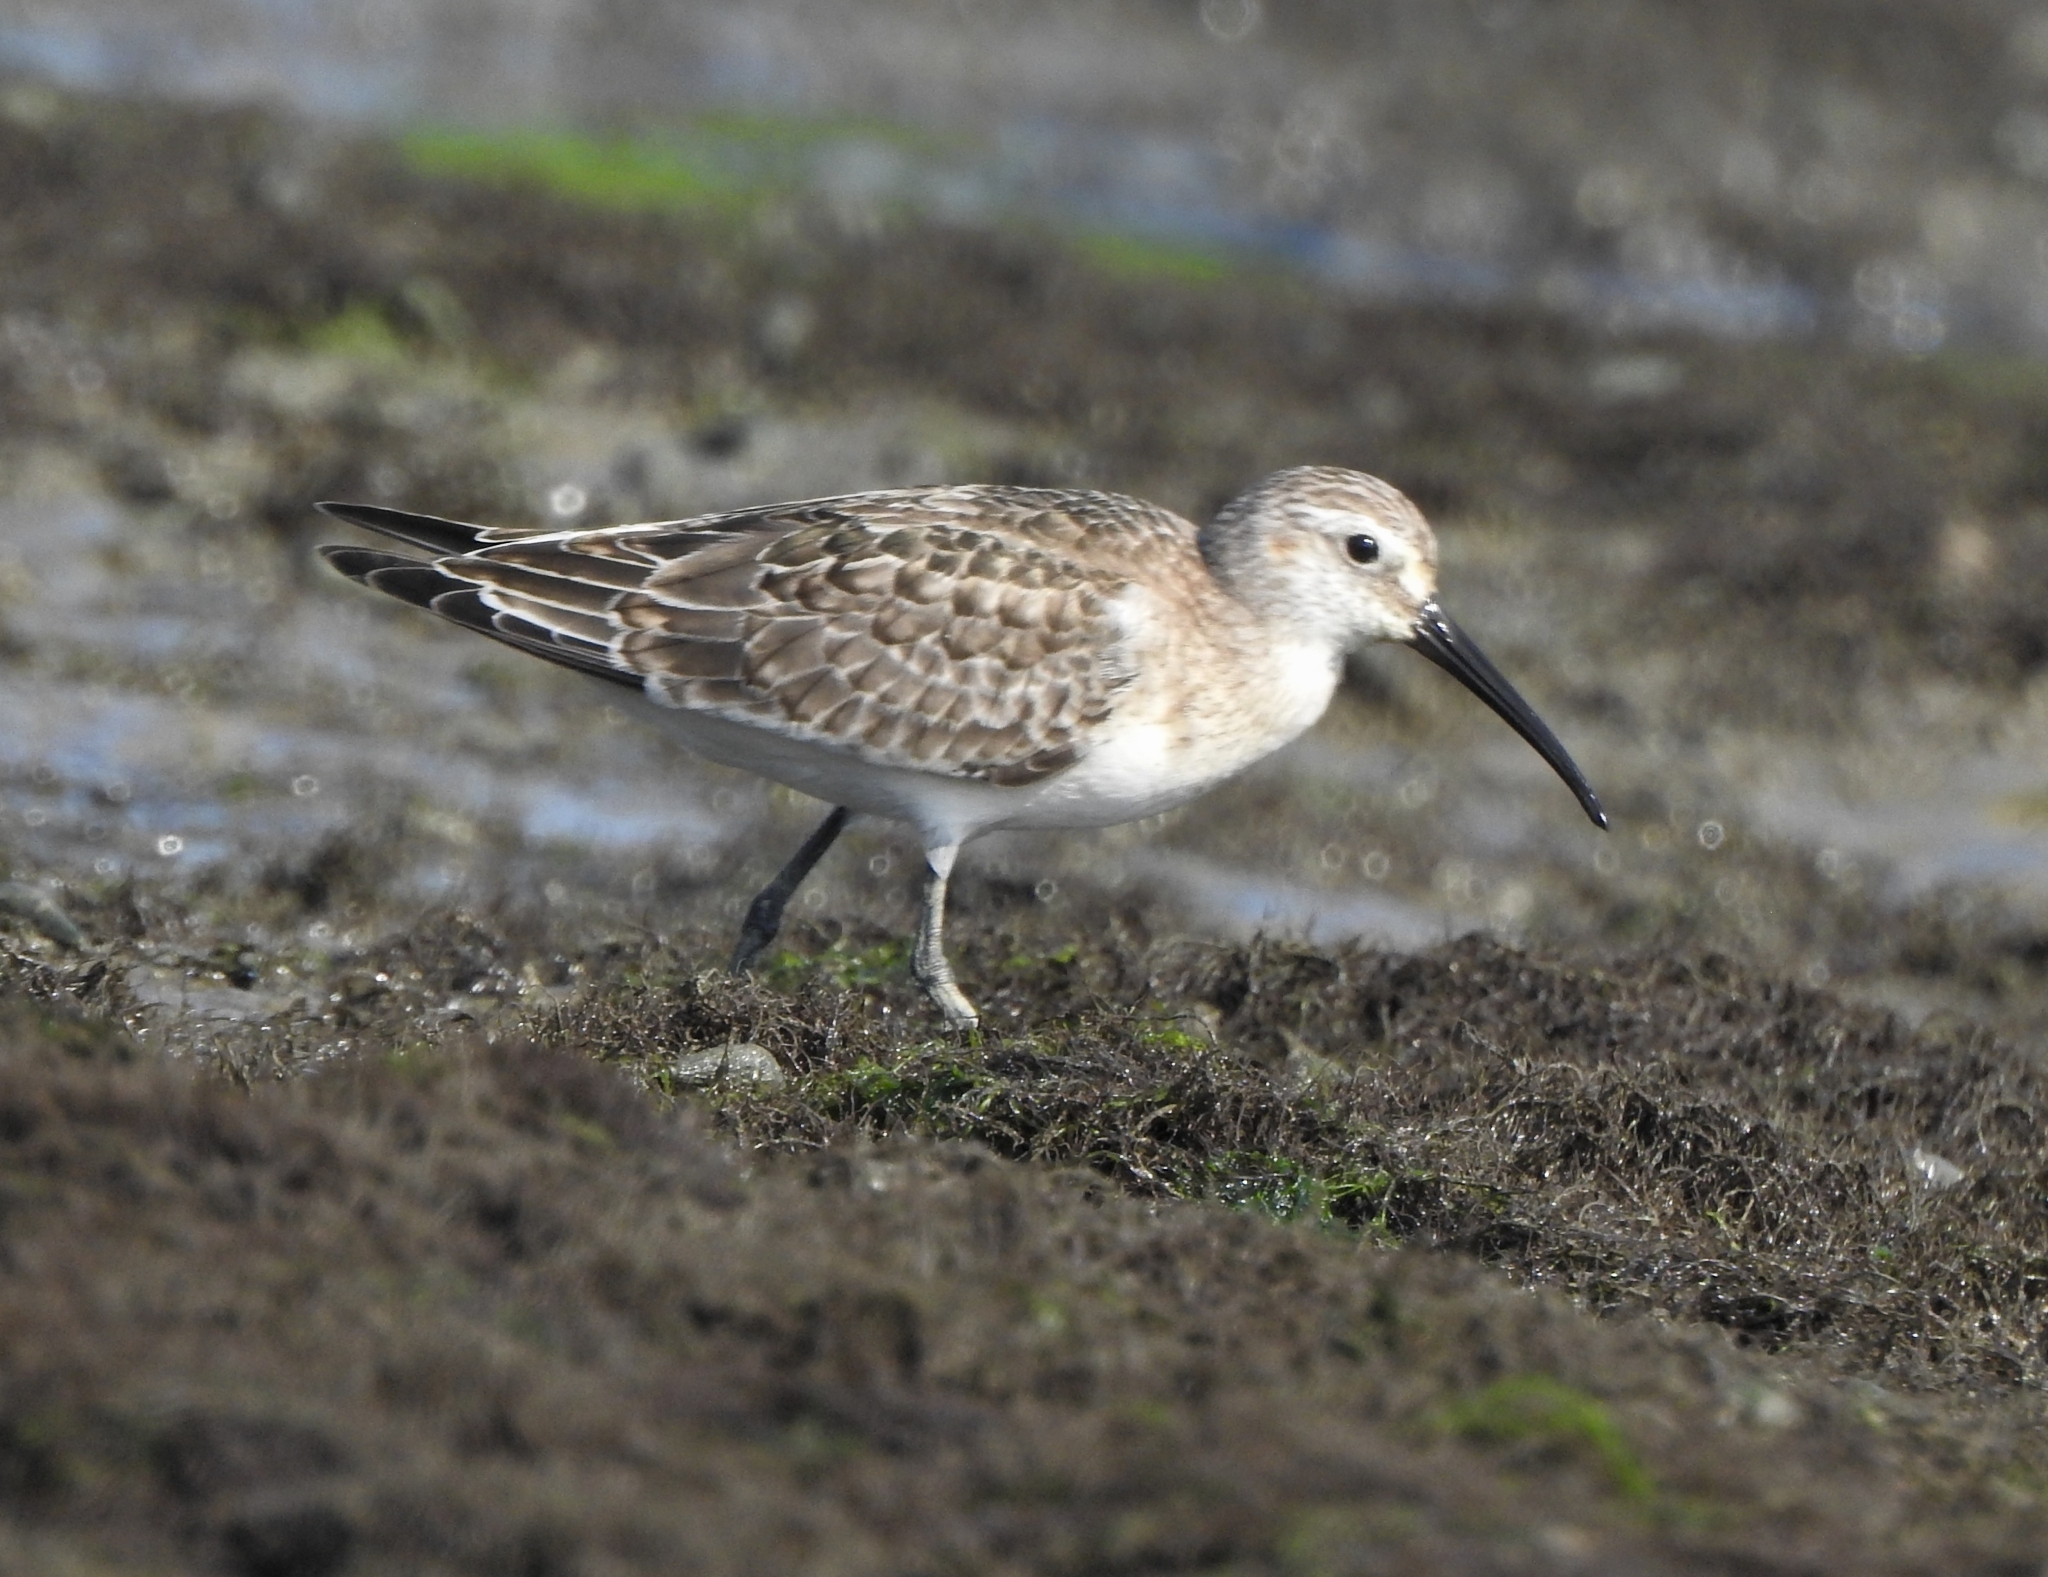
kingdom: Animalia
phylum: Chordata
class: Aves
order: Charadriiformes
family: Scolopacidae
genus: Calidris
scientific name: Calidris ferruginea
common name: Curlew sandpiper
